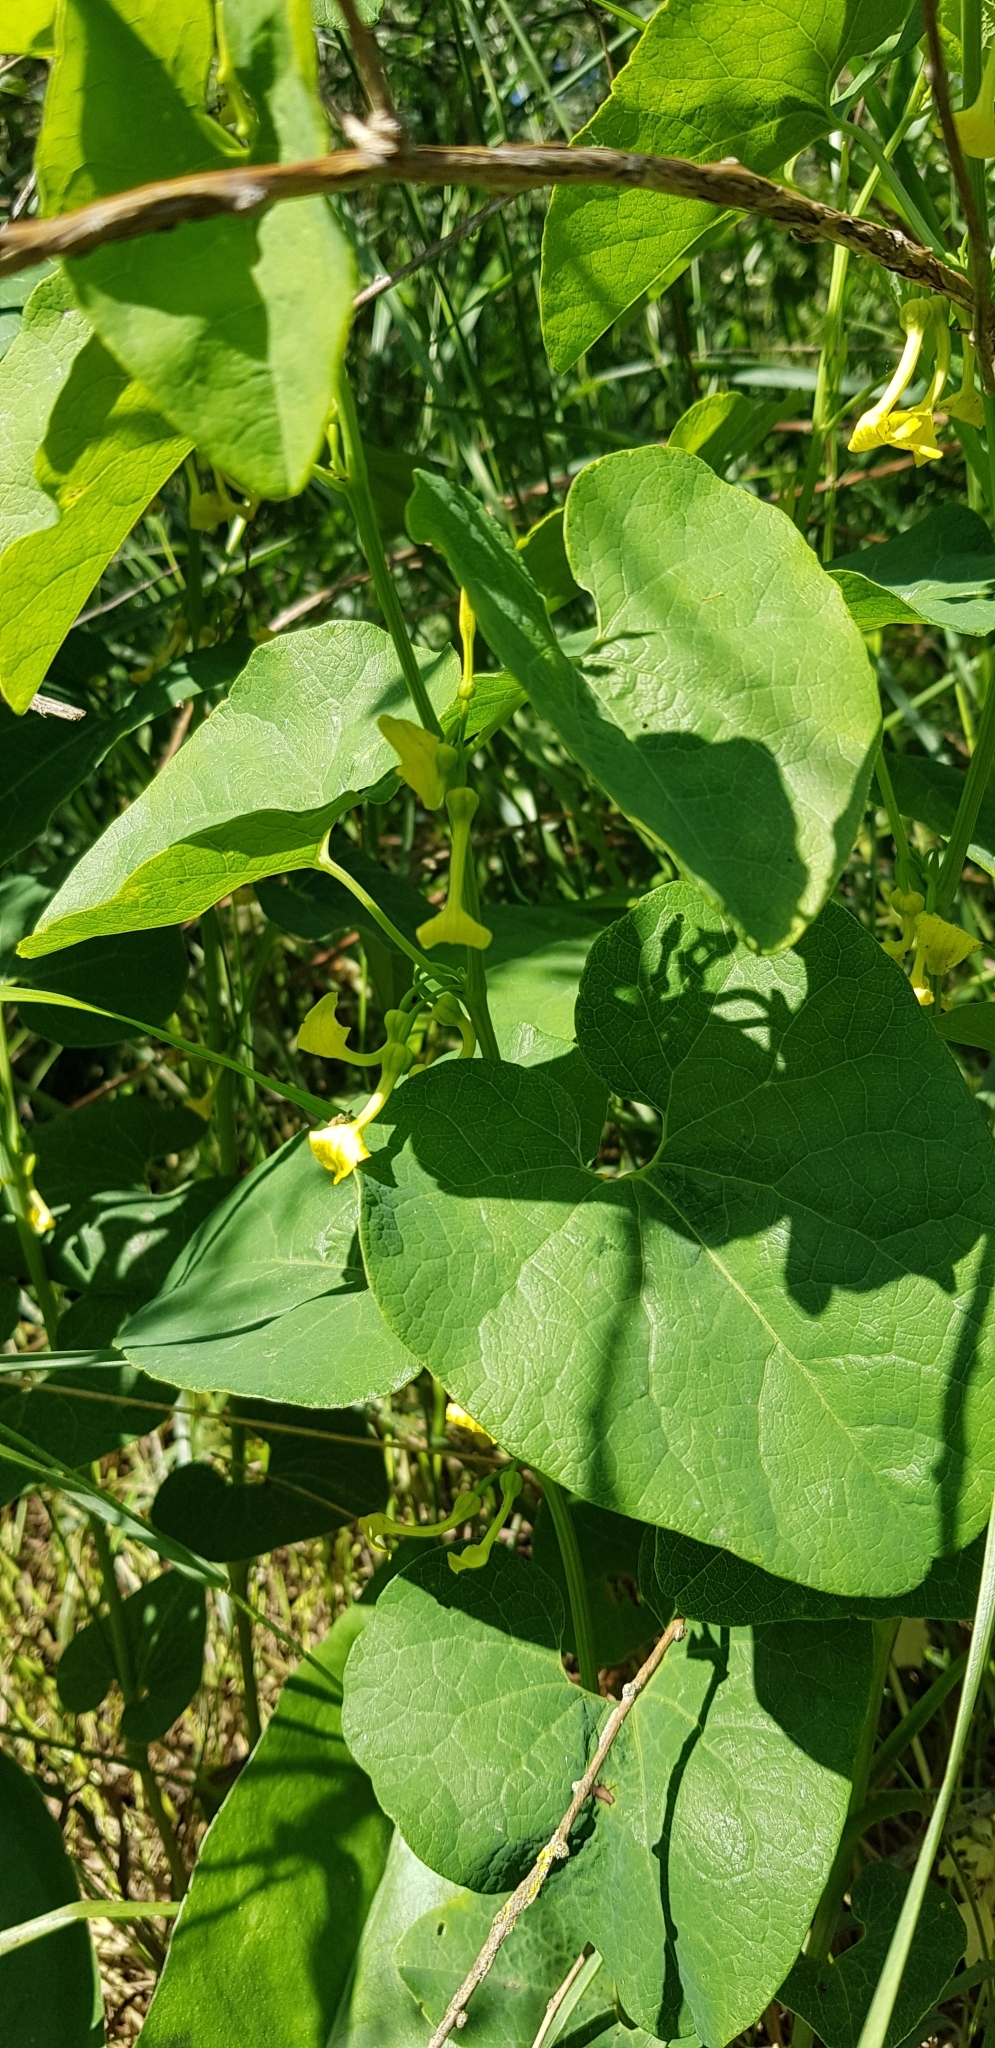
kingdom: Plantae
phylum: Tracheophyta
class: Magnoliopsida
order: Piperales
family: Aristolochiaceae
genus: Aristolochia
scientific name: Aristolochia clematitis
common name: Birthwort
